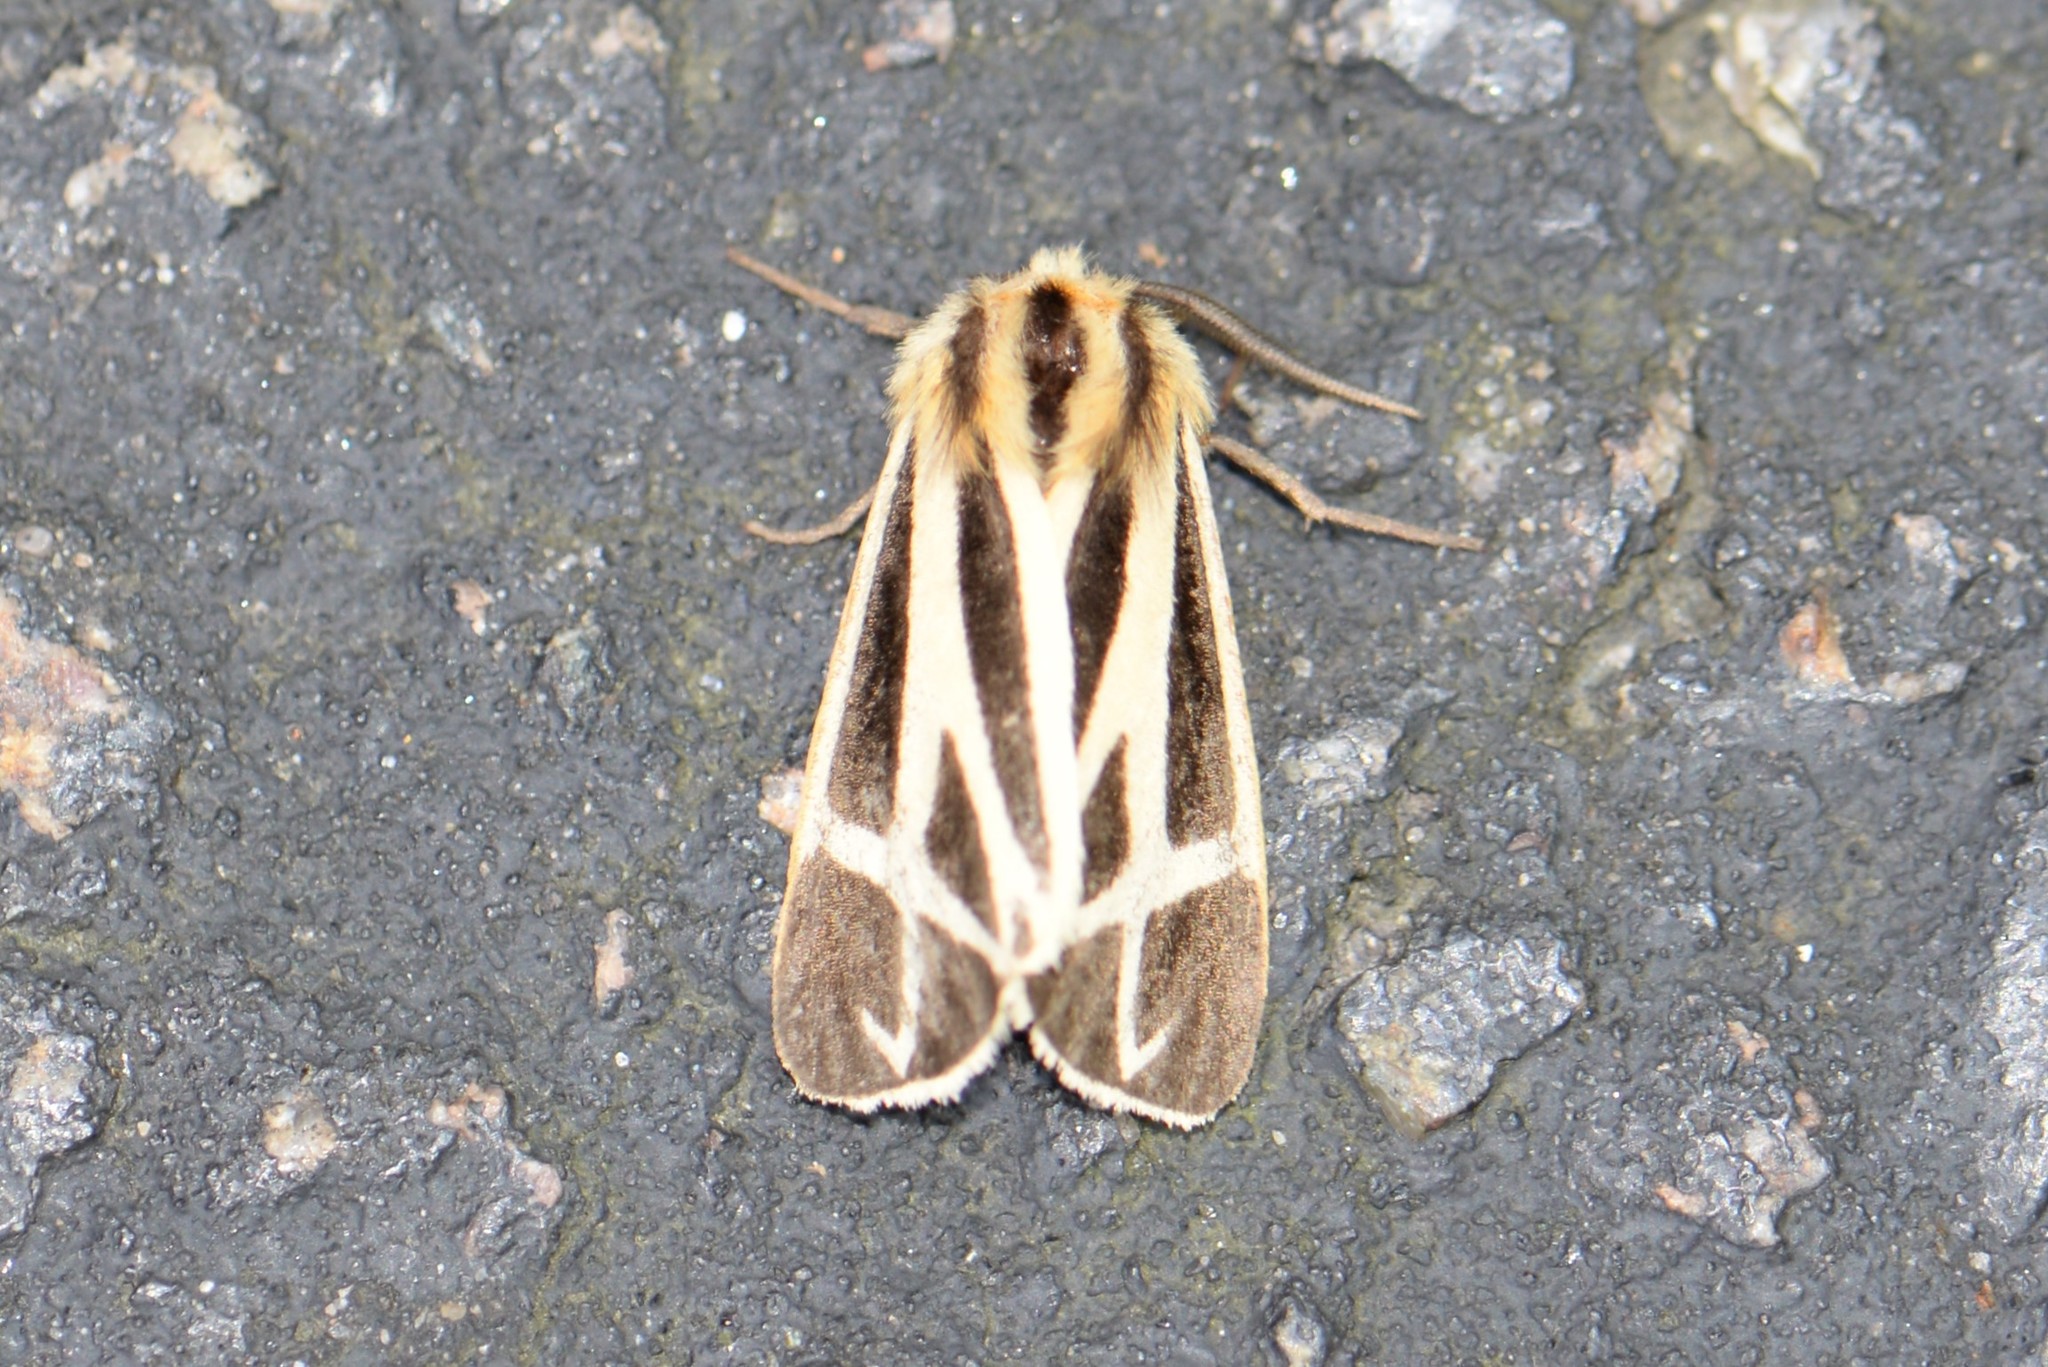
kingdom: Animalia
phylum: Arthropoda
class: Insecta
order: Lepidoptera
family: Erebidae
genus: Apantesis
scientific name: Apantesis nais
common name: Nais tiger moth
